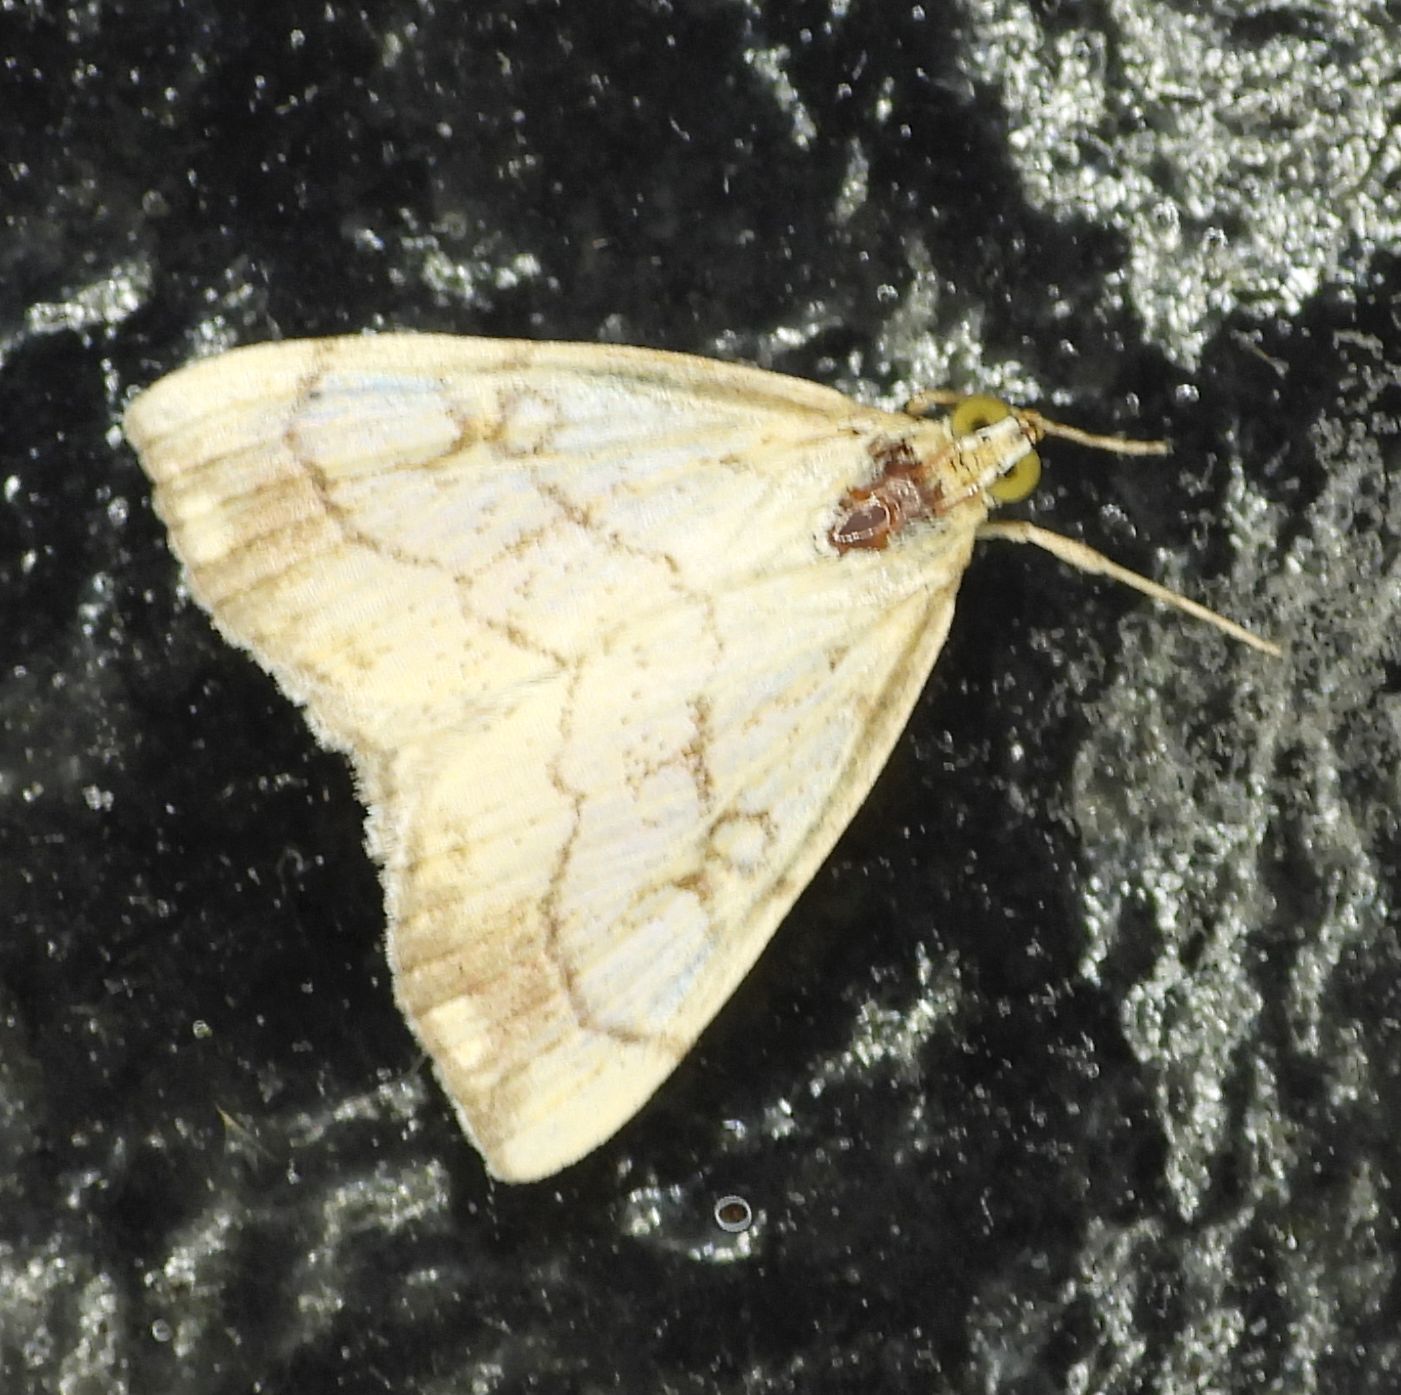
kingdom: Animalia
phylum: Arthropoda
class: Insecta
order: Lepidoptera
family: Crambidae
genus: Evergestis
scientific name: Evergestis pallidata
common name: Chequered pearl
